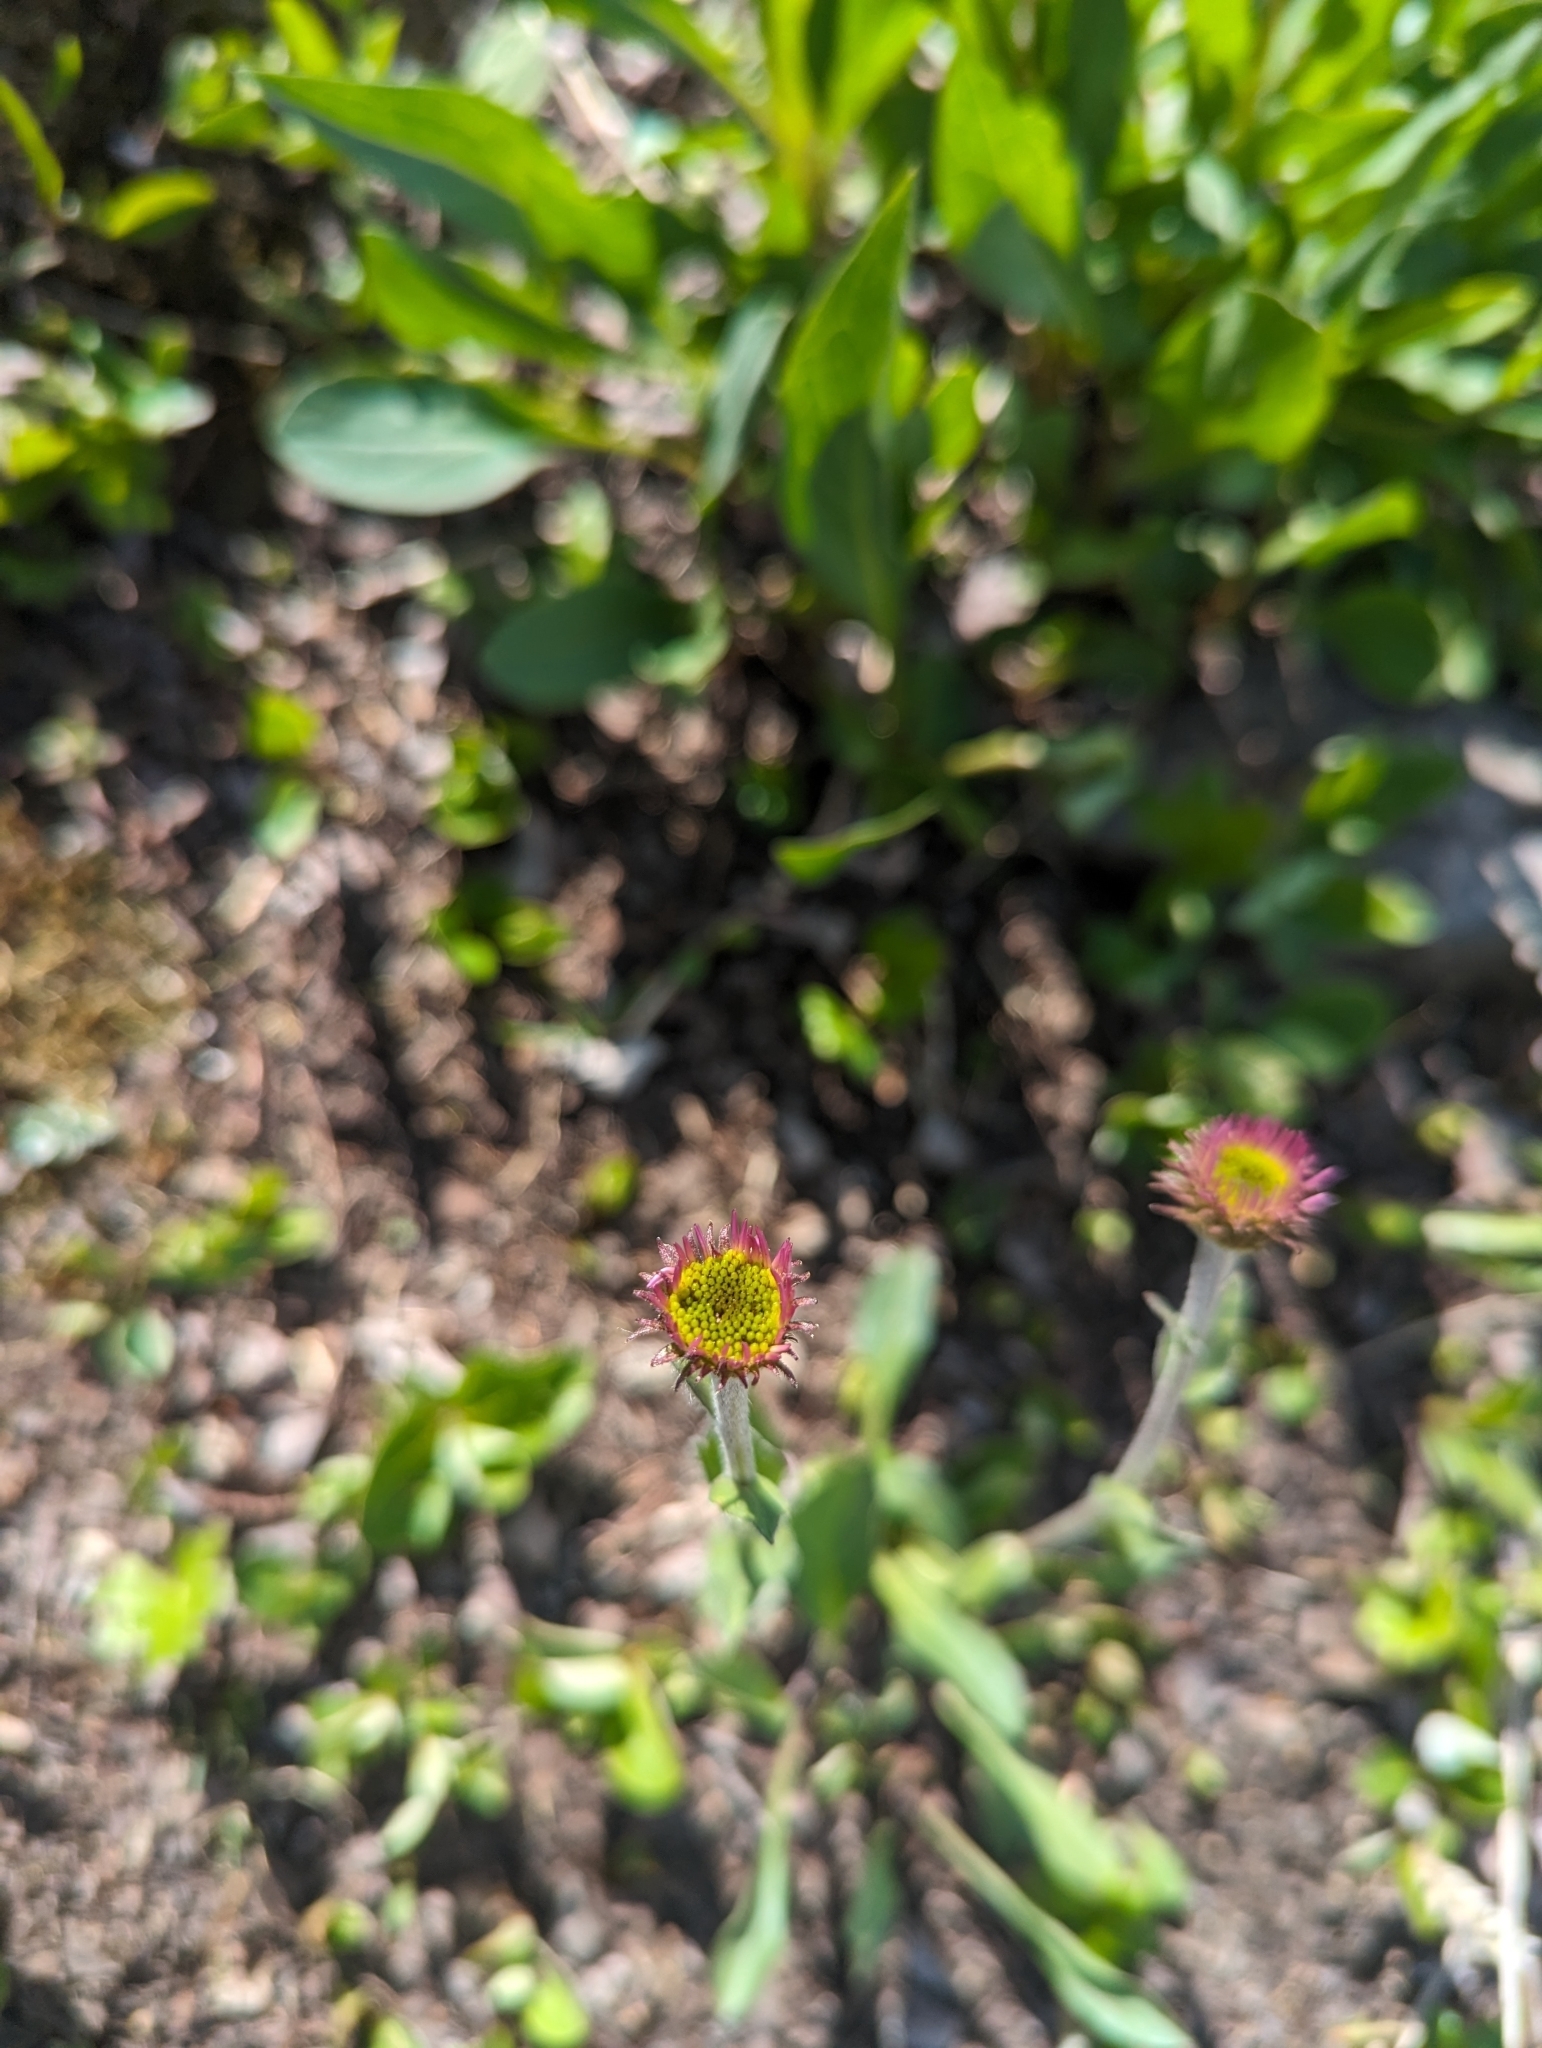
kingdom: Plantae
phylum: Tracheophyta
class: Magnoliopsida
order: Asterales
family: Asteraceae
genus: Erigeron
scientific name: Erigeron glacialis
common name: Subalpine fleabane
